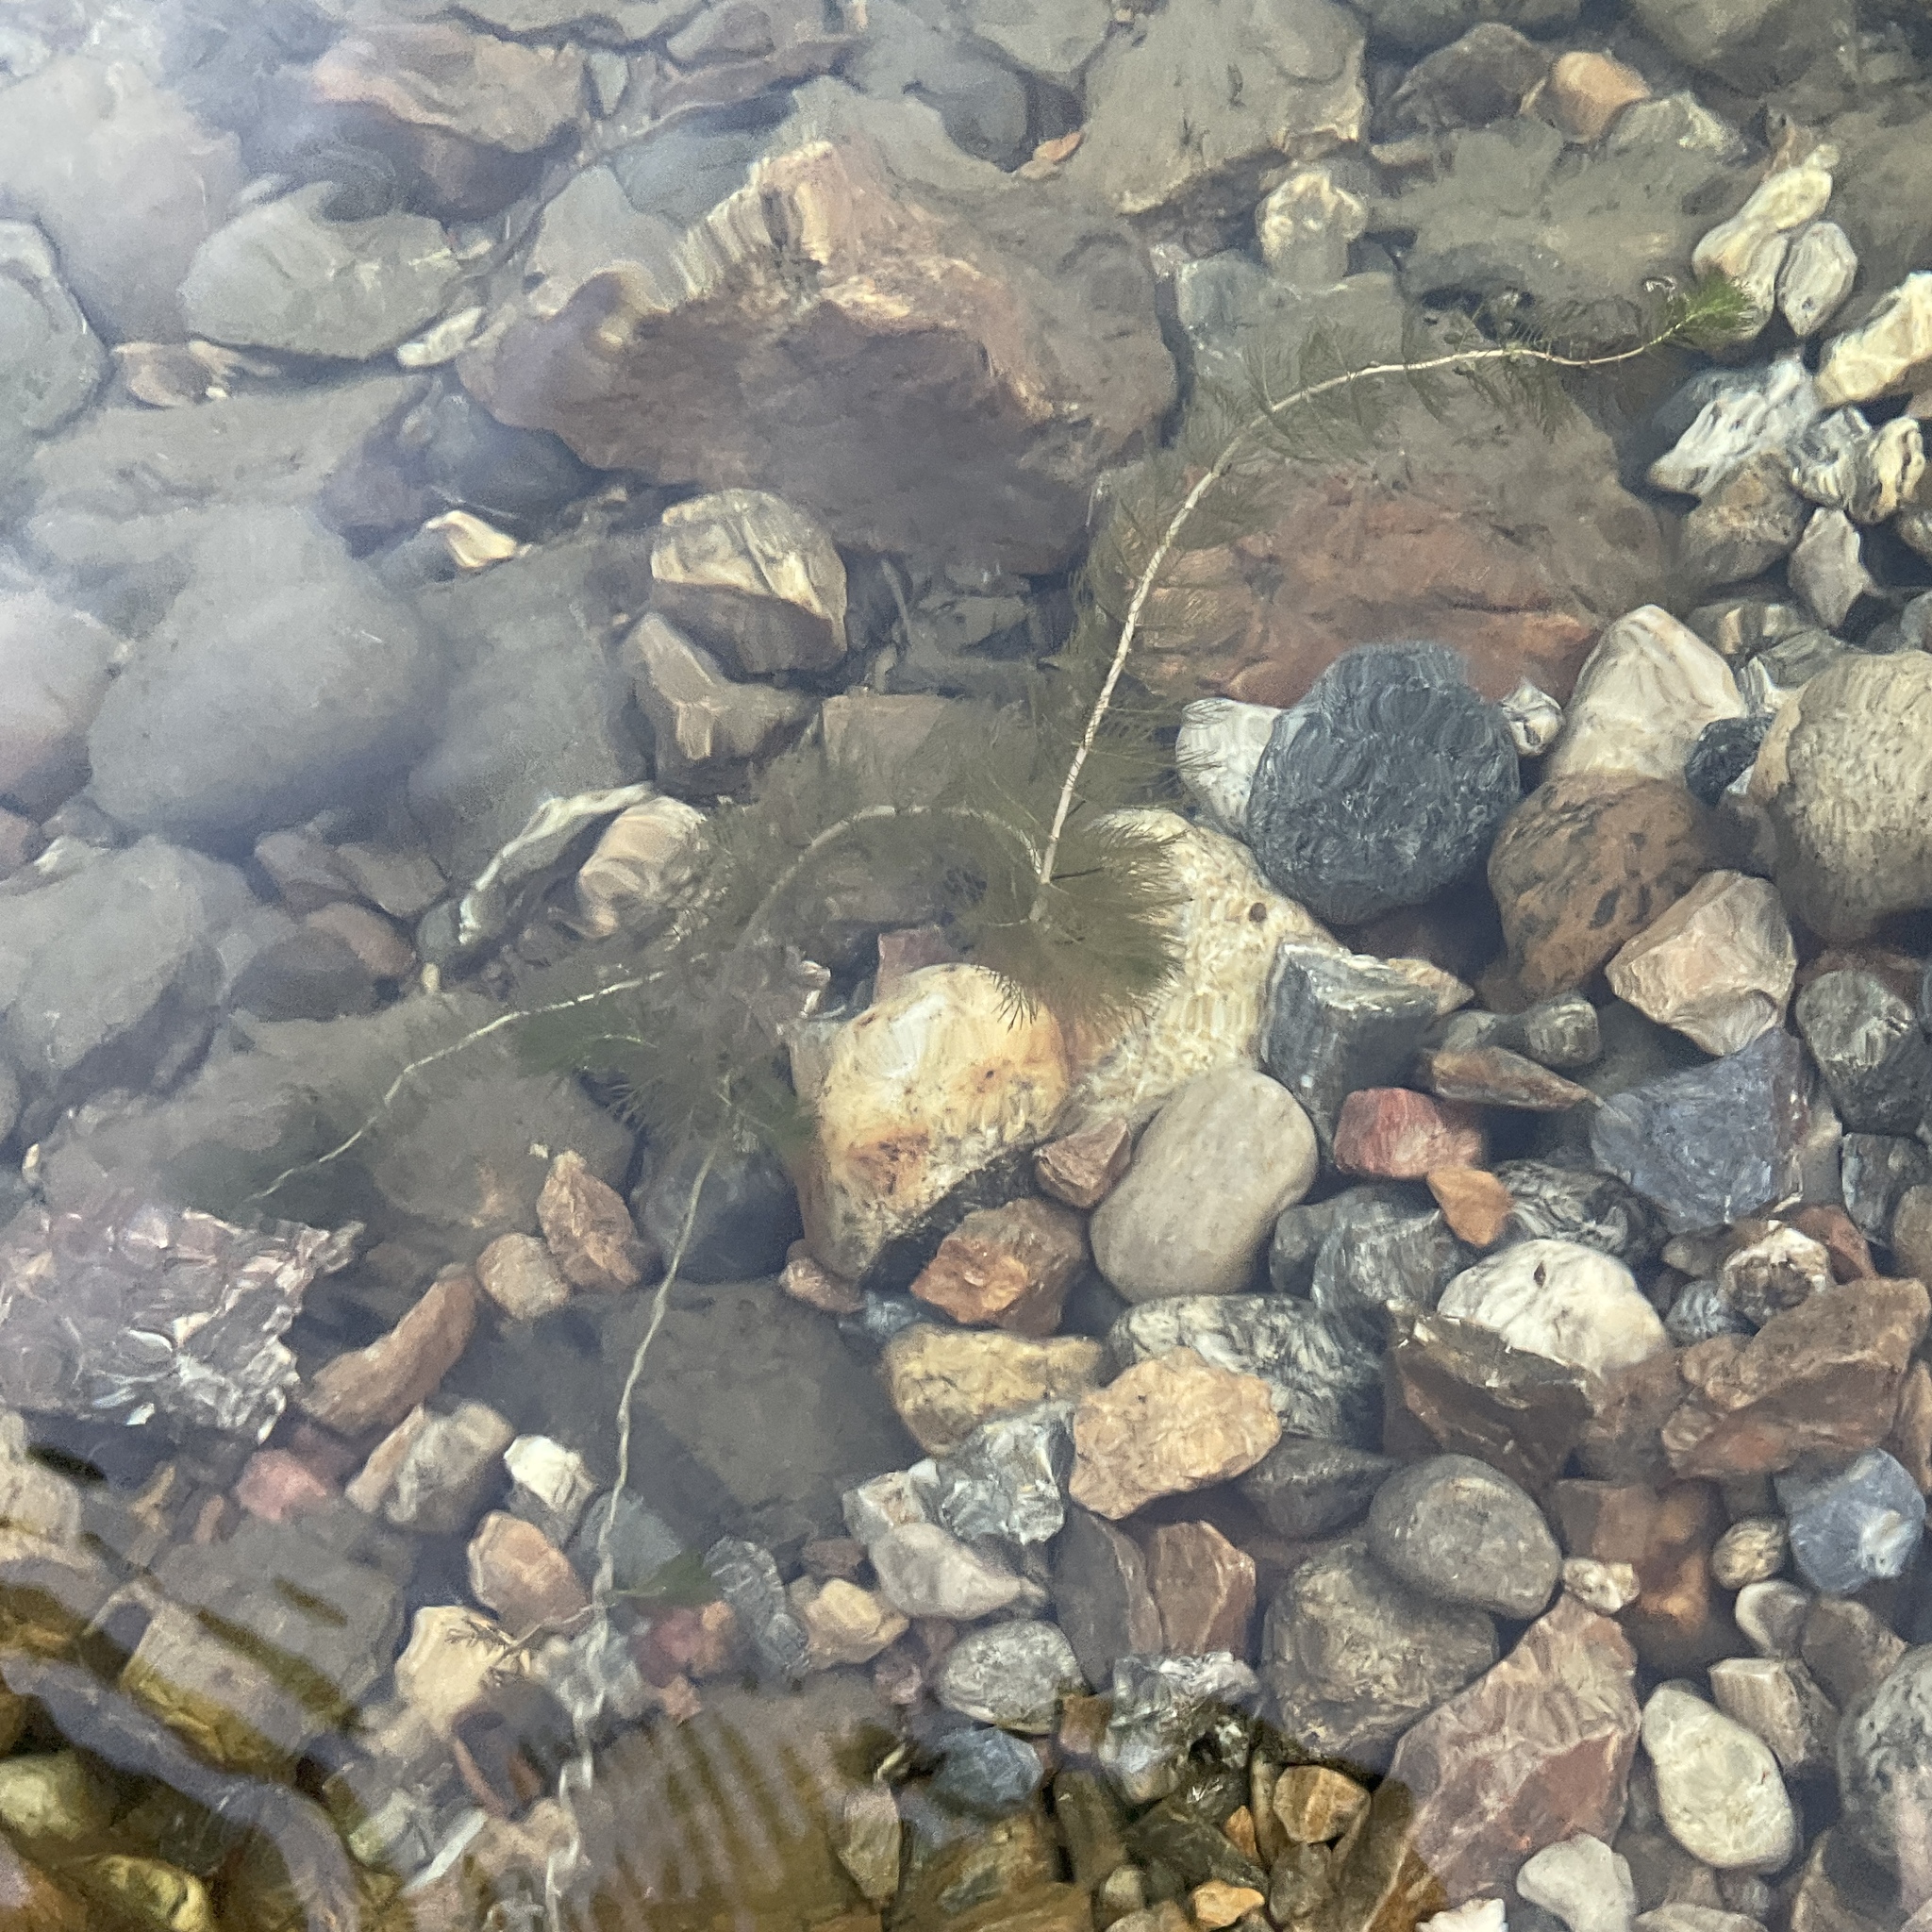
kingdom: Plantae
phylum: Tracheophyta
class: Magnoliopsida
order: Saxifragales
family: Haloragaceae
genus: Myriophyllum
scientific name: Myriophyllum spicatum
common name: Spiked water-milfoil
